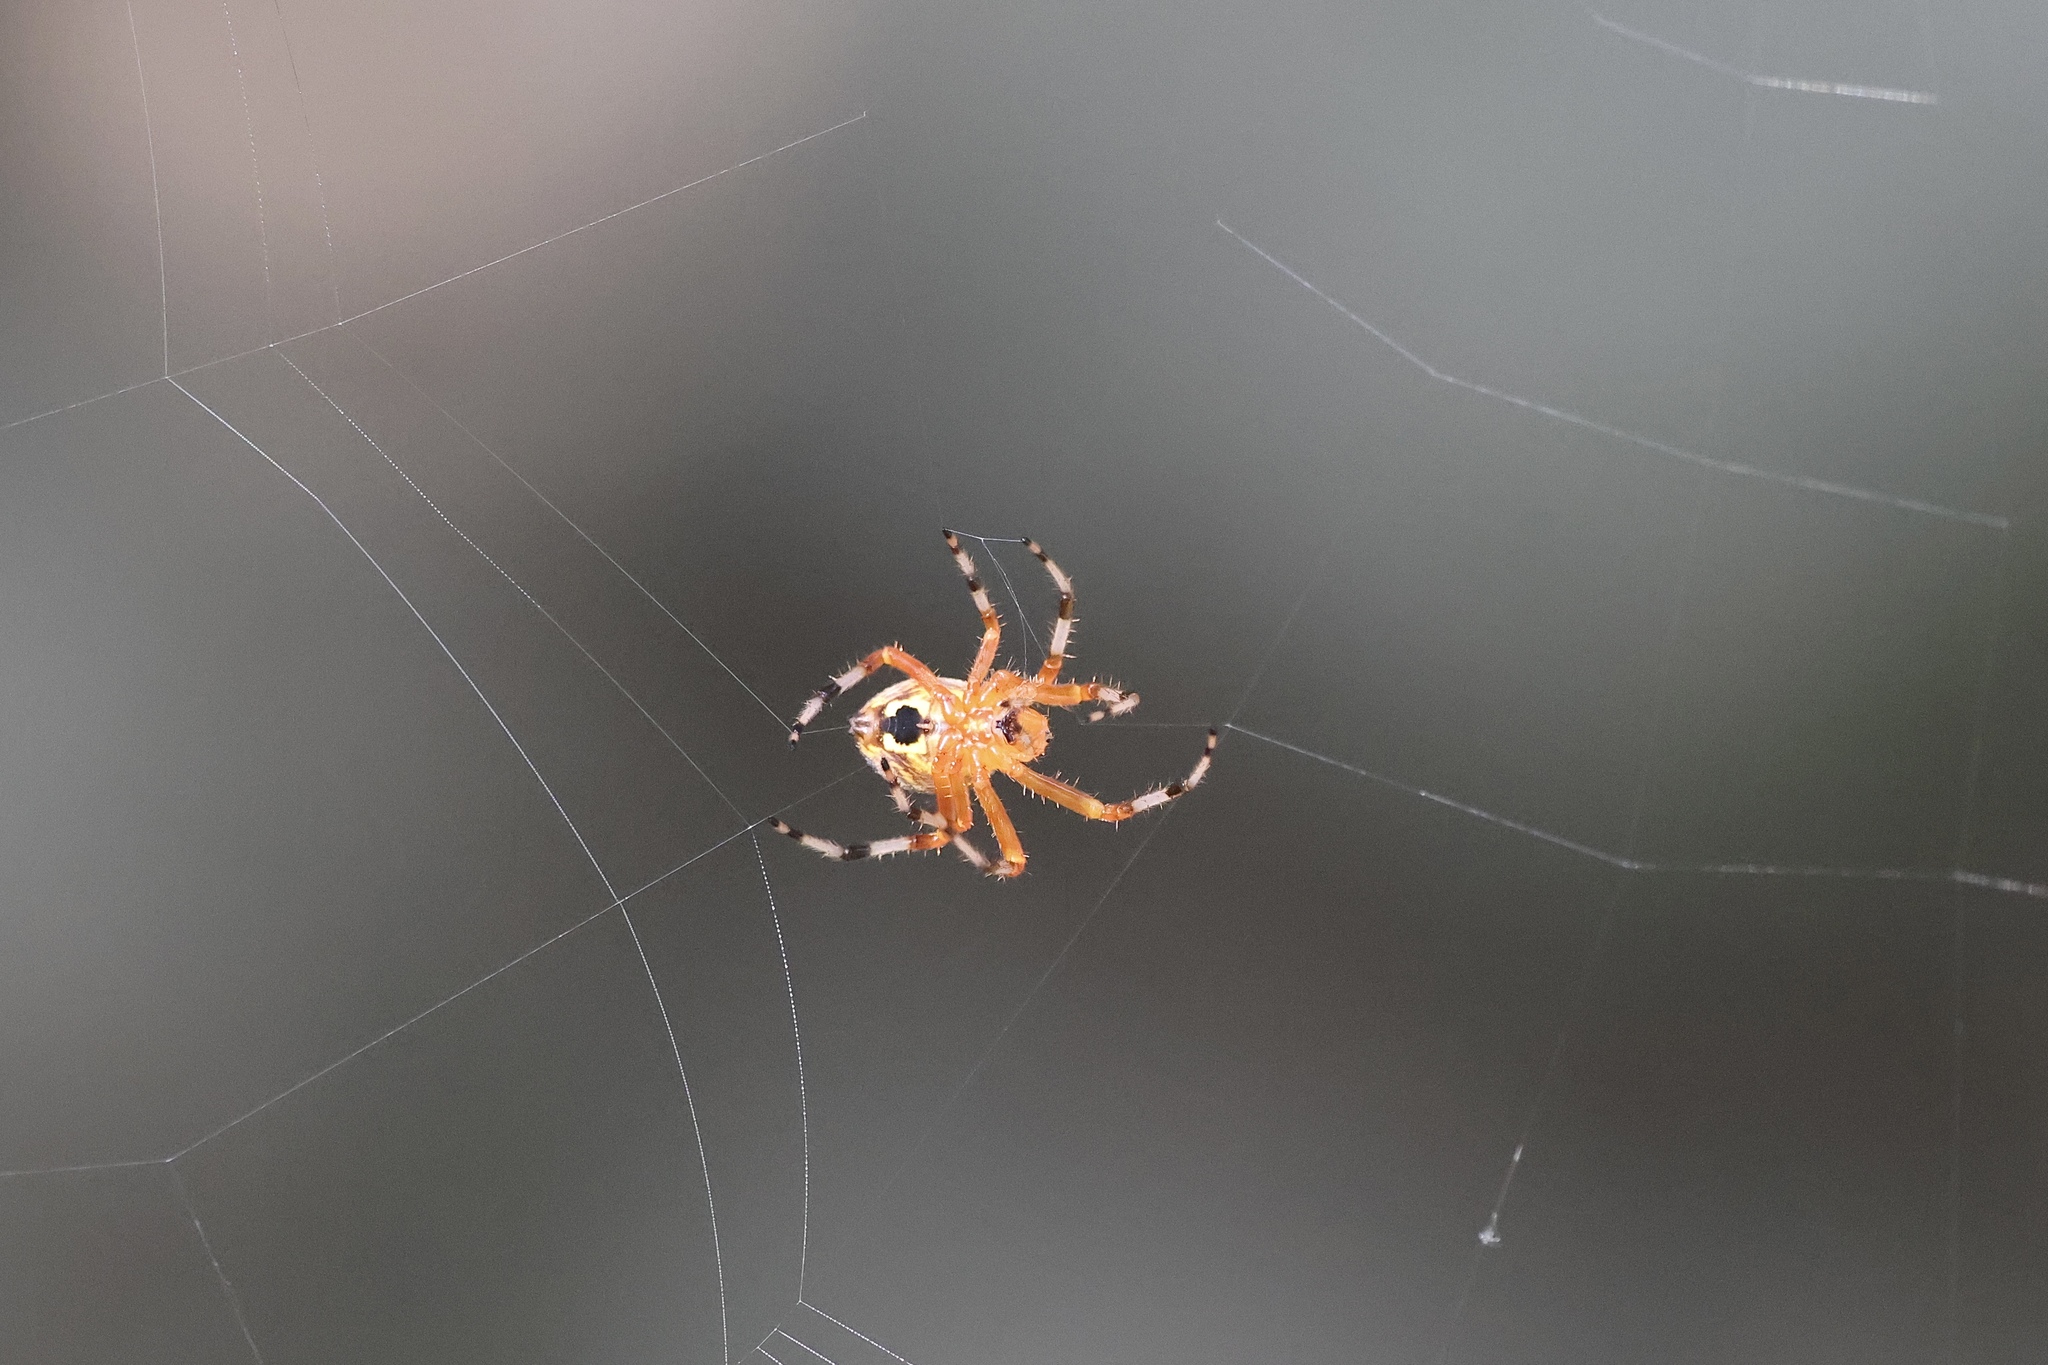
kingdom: Animalia
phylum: Arthropoda
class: Arachnida
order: Araneae
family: Araneidae
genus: Araneus
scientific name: Araneus marmoreus
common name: Marbled orbweaver
